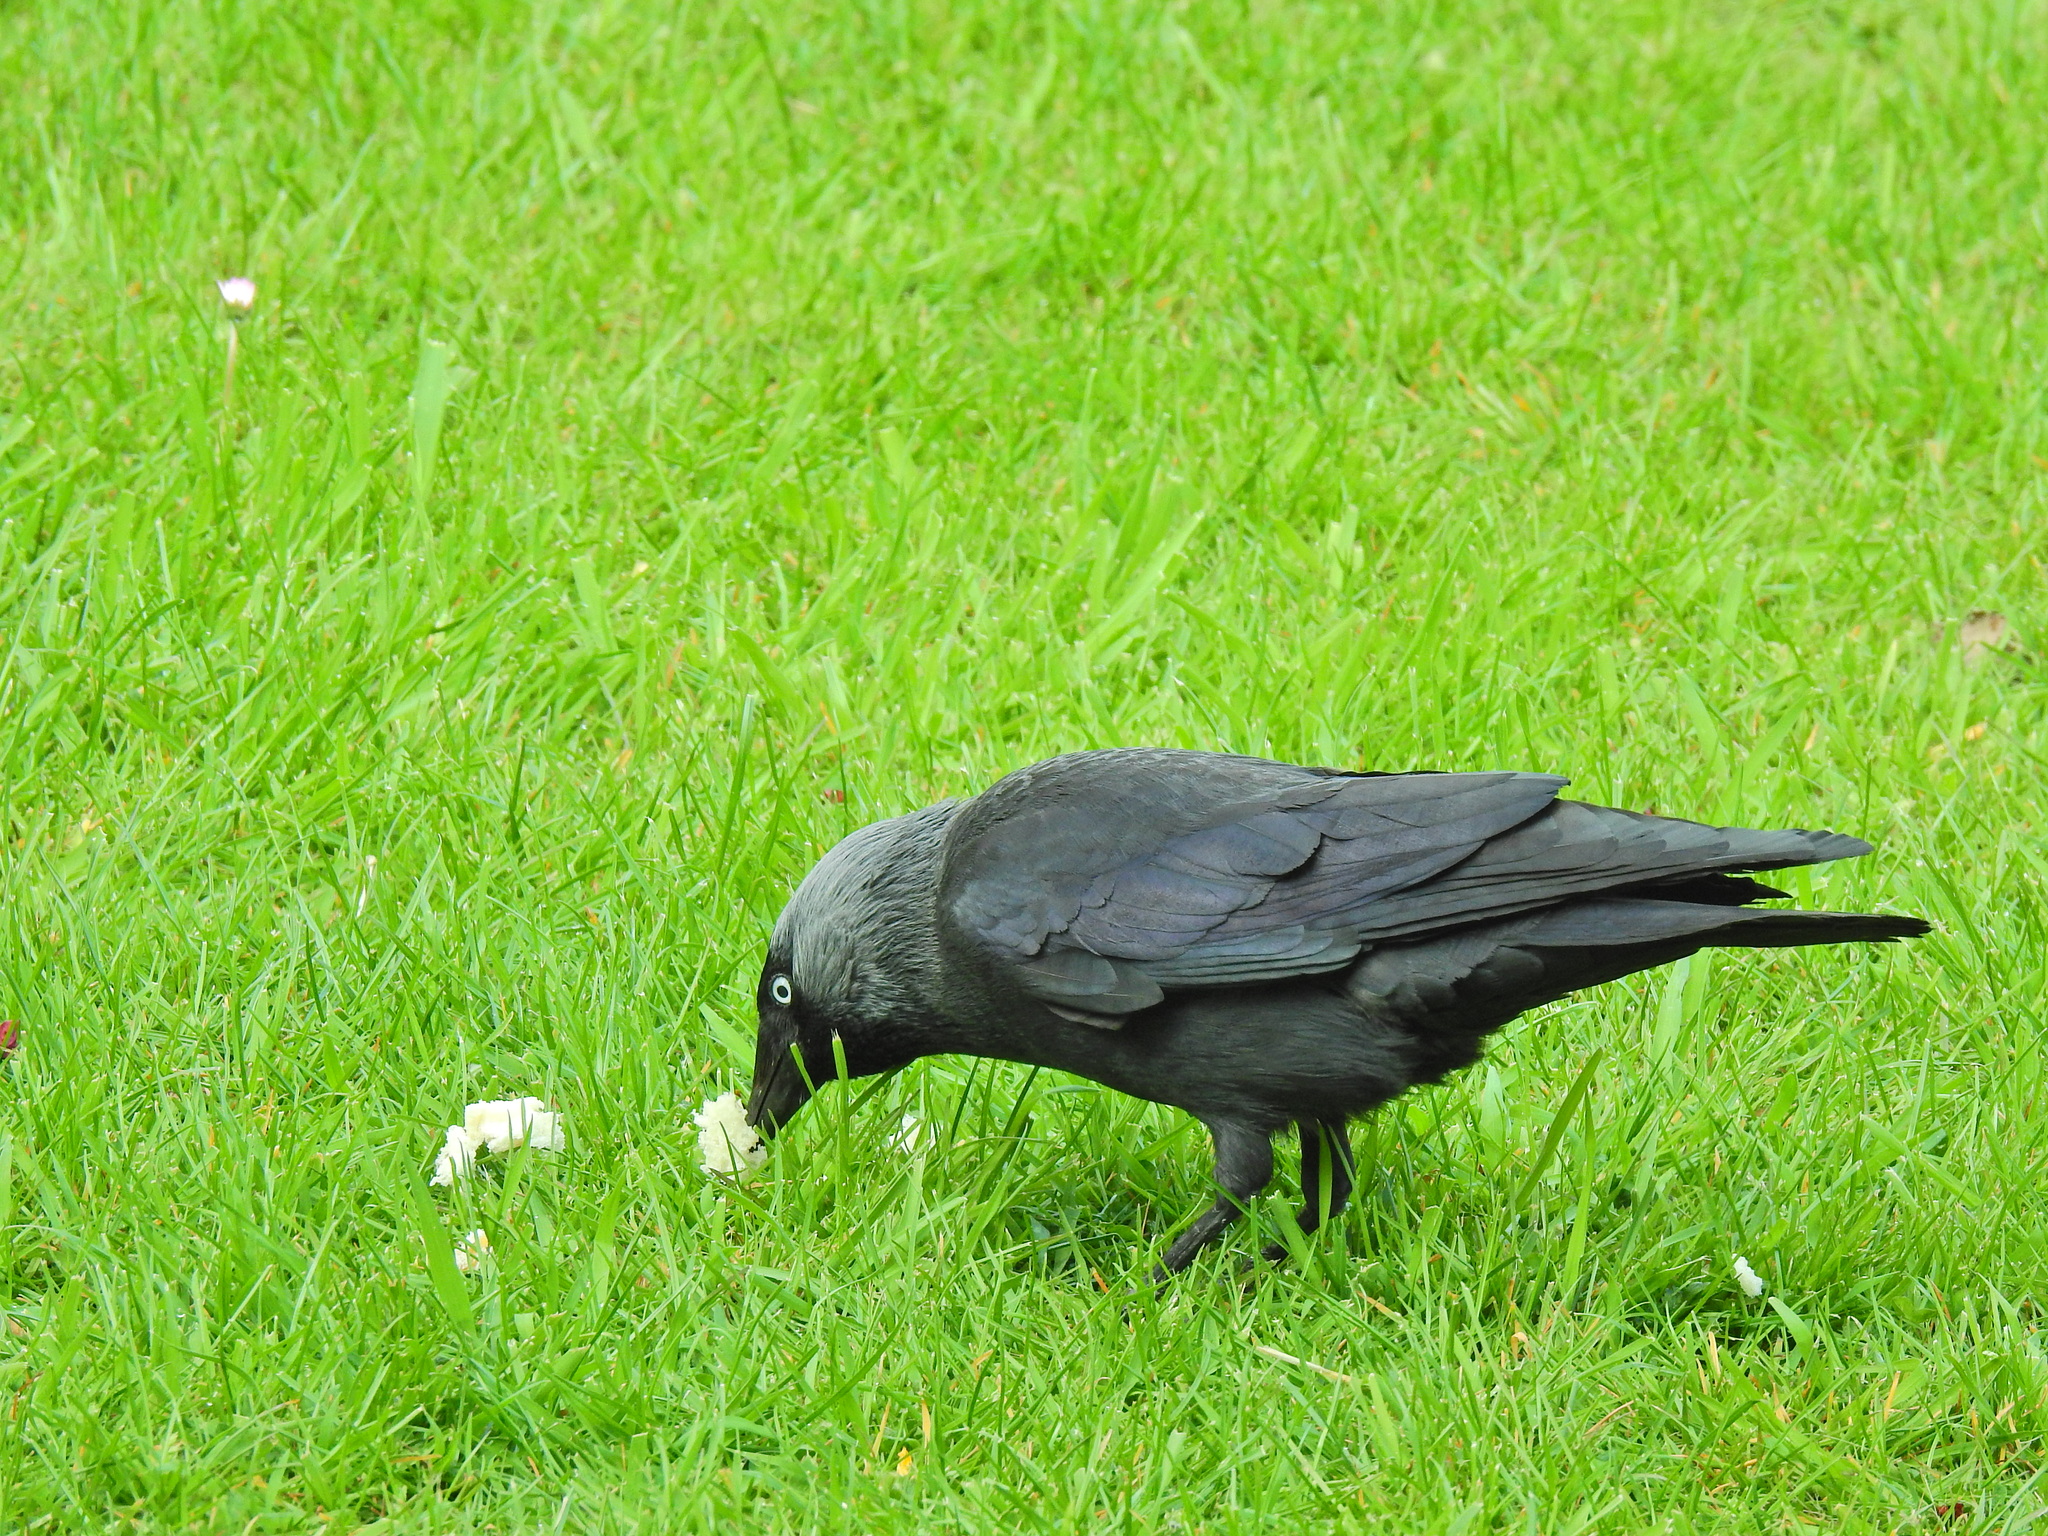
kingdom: Animalia
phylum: Chordata
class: Aves
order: Passeriformes
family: Corvidae
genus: Coloeus
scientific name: Coloeus monedula
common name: Western jackdaw
